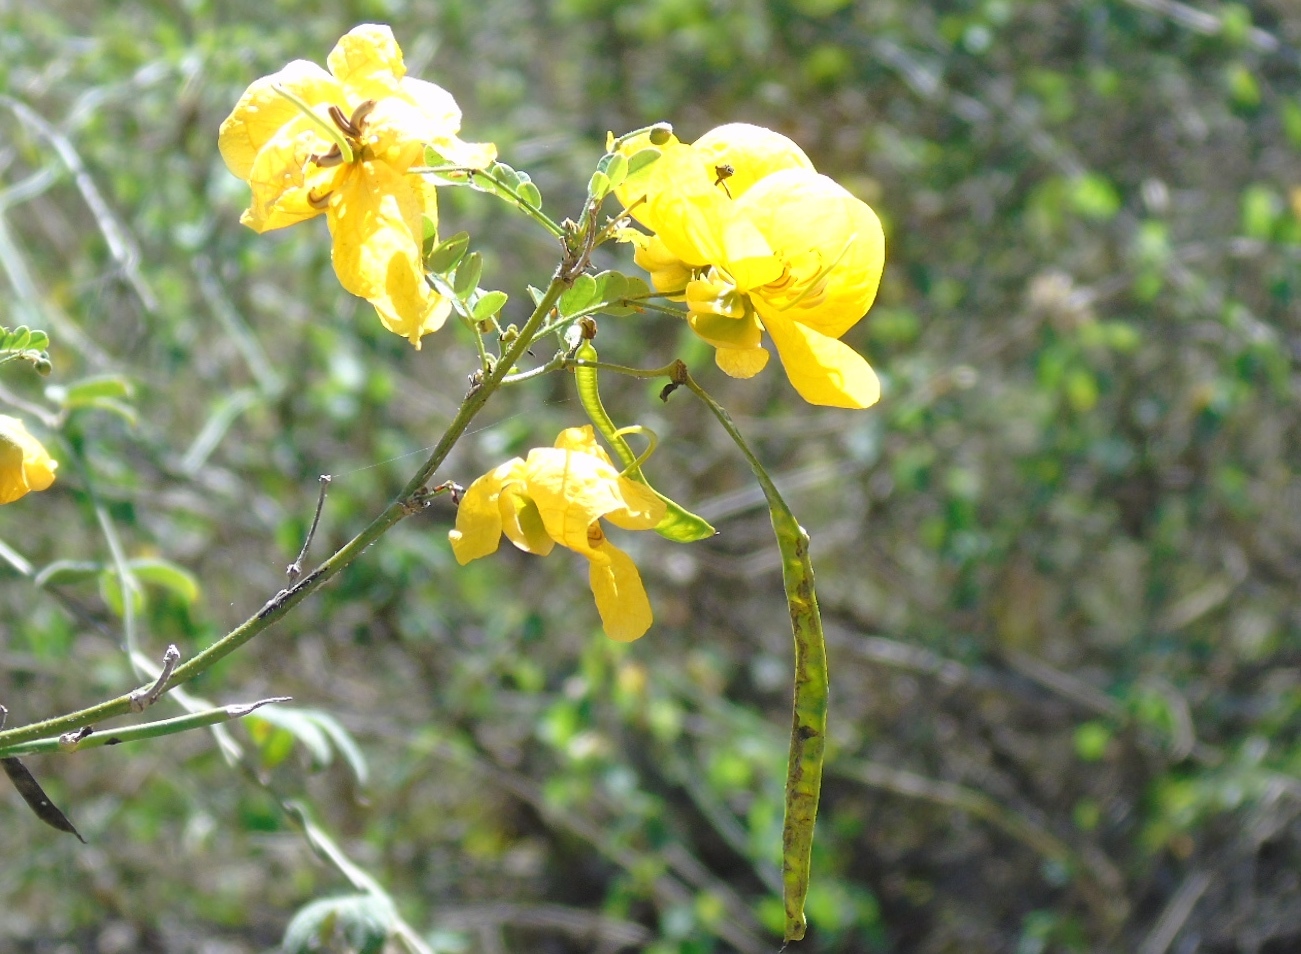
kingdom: Plantae
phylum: Tracheophyta
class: Magnoliopsida
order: Fabales
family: Fabaceae
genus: Senna
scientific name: Senna pallida
